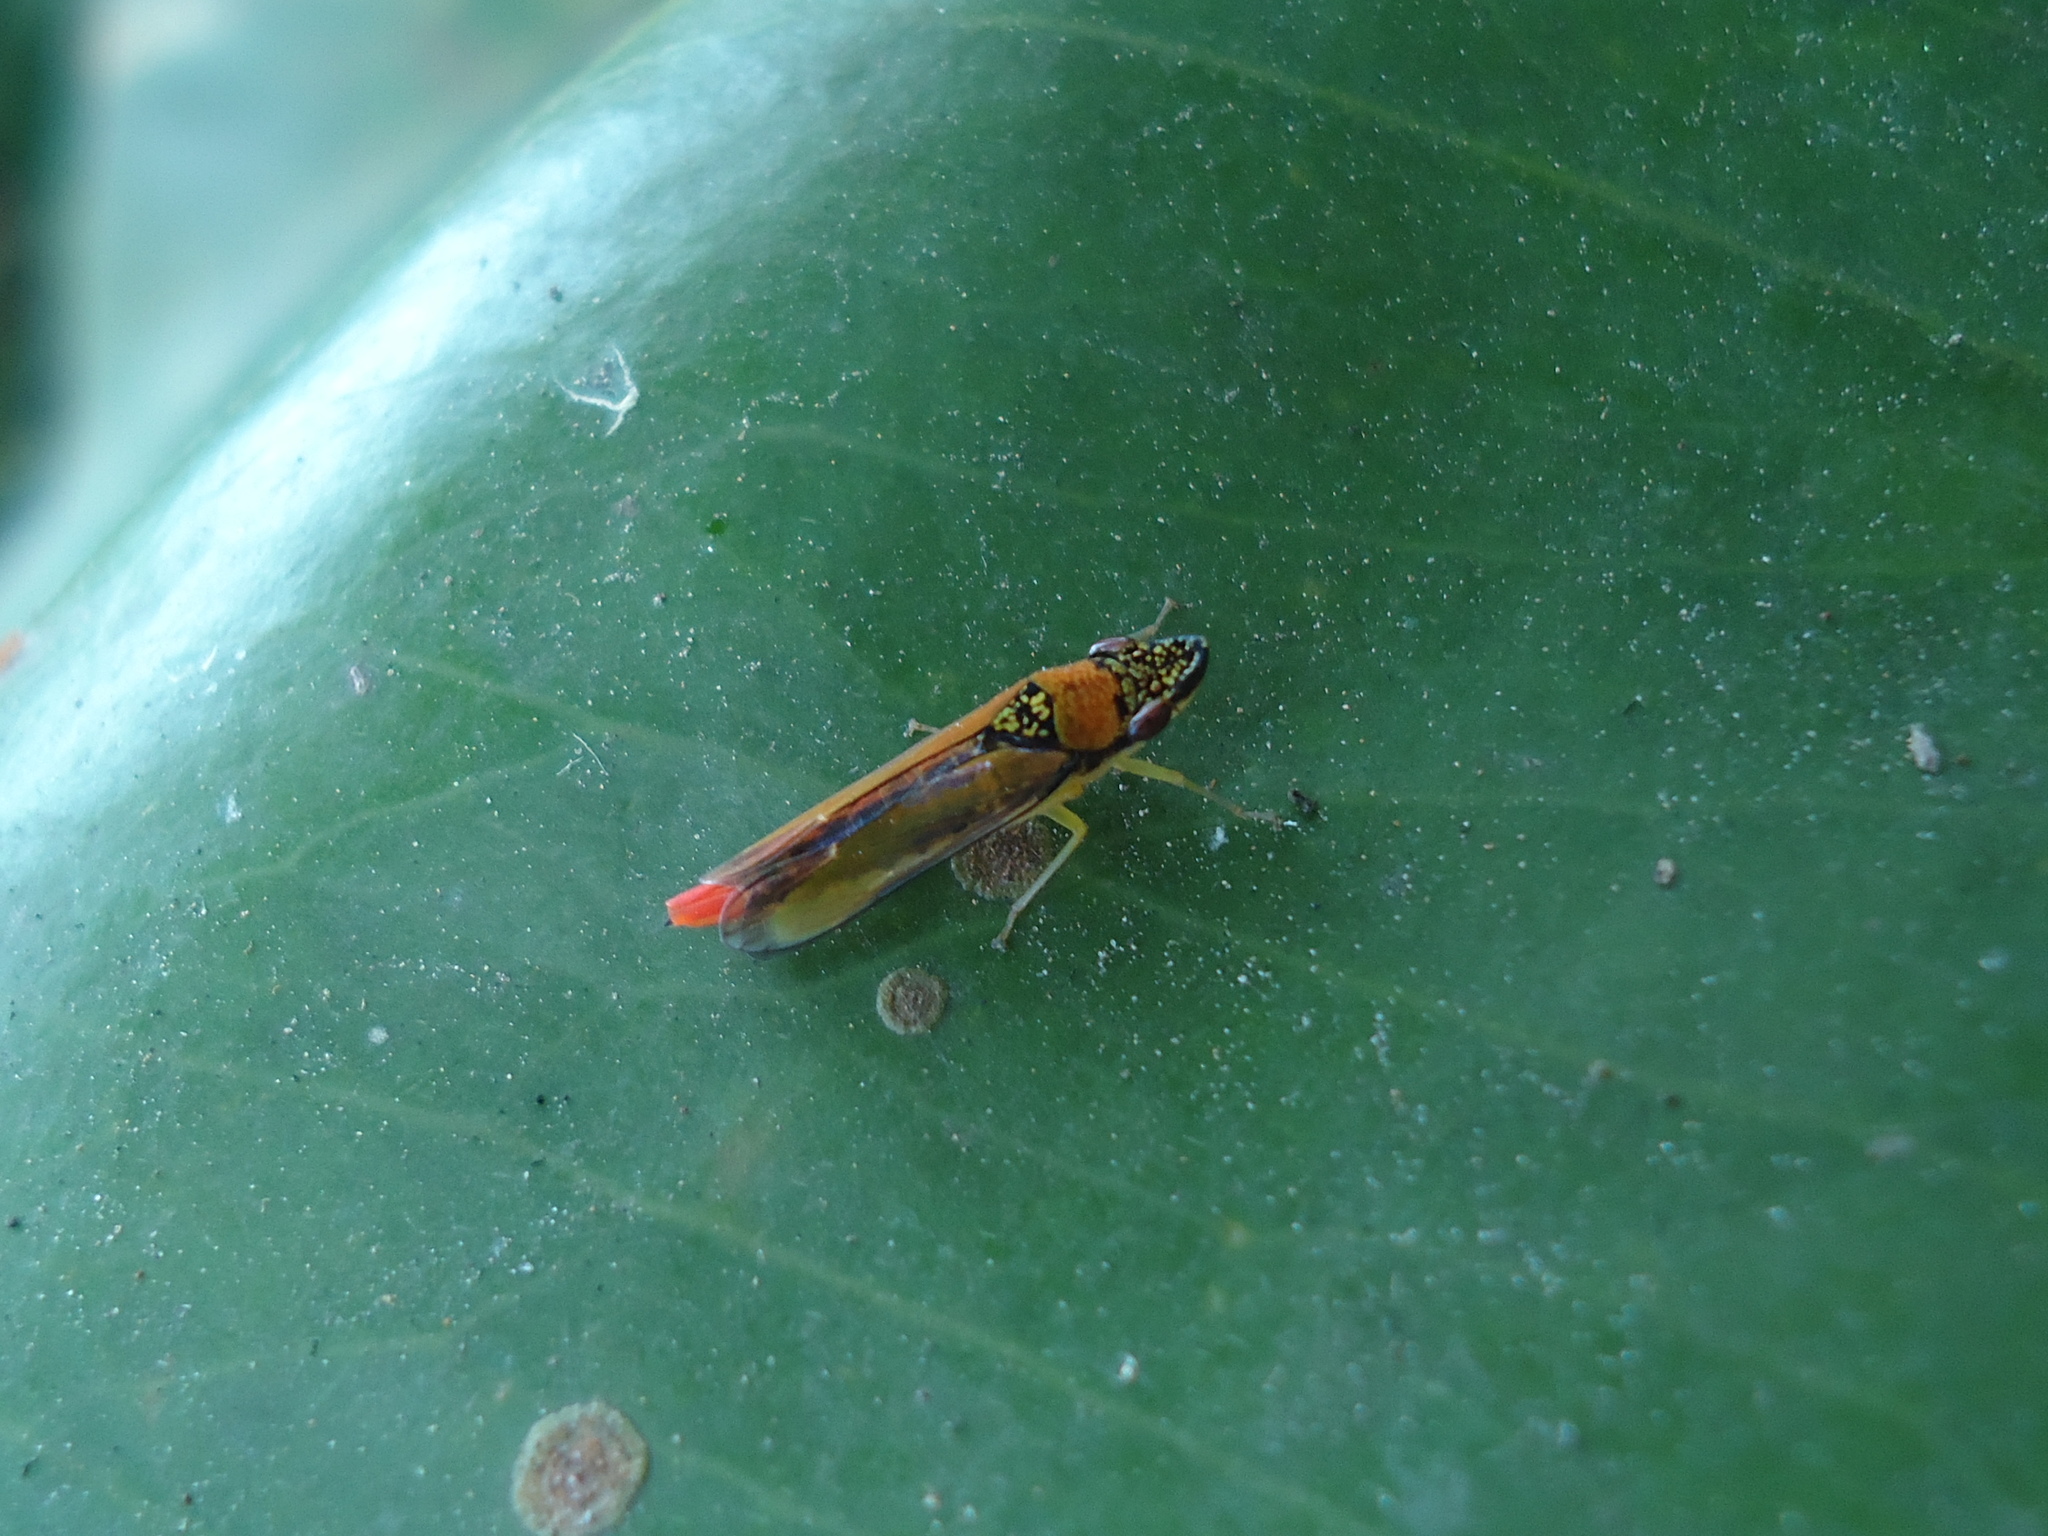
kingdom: Animalia
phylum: Arthropoda
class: Insecta
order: Hemiptera
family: Cicadellidae
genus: Acrogonia
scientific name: Acrogonia terminalis
